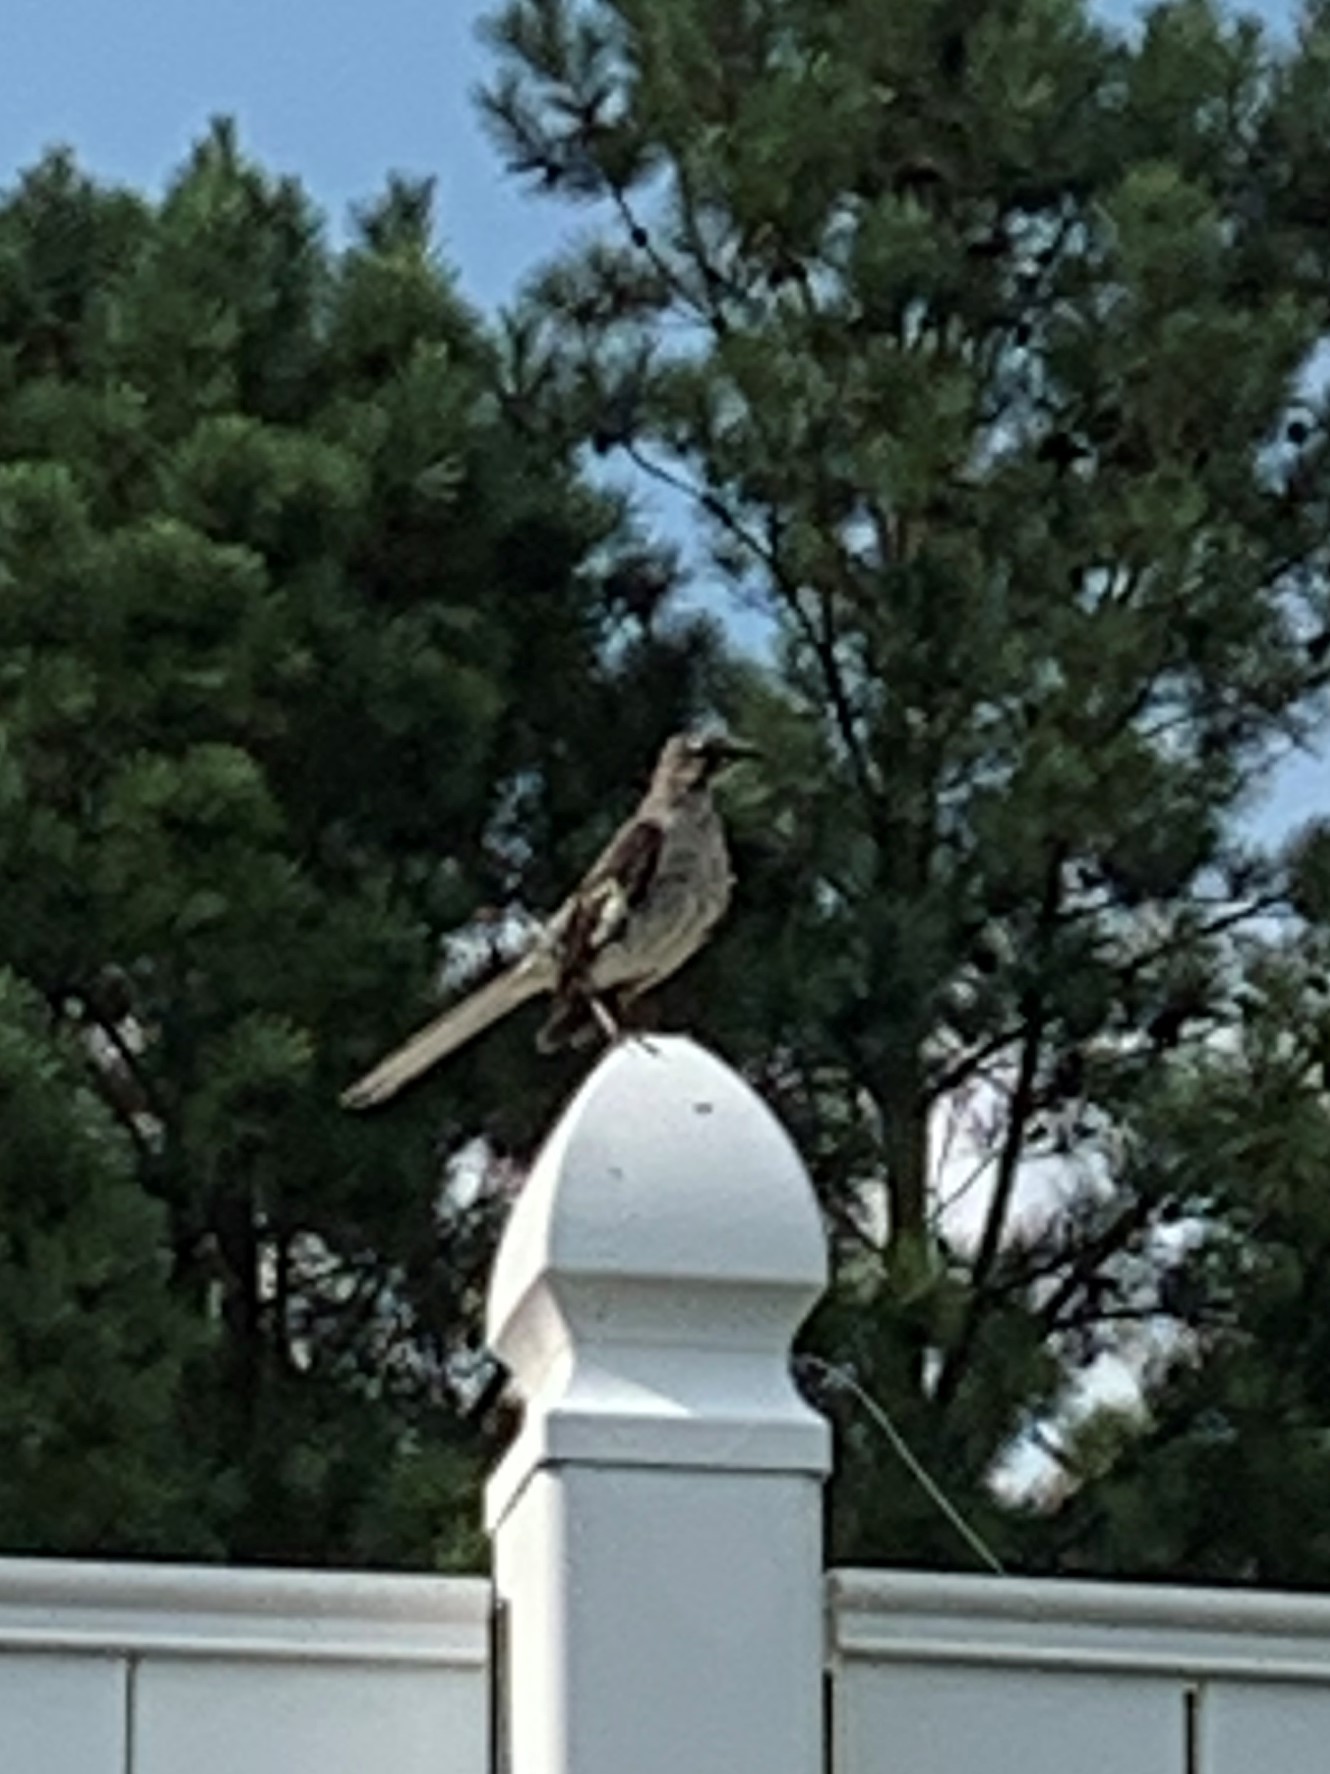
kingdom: Animalia
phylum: Chordata
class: Aves
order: Passeriformes
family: Mimidae
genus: Mimus
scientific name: Mimus polyglottos
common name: Northern mockingbird
